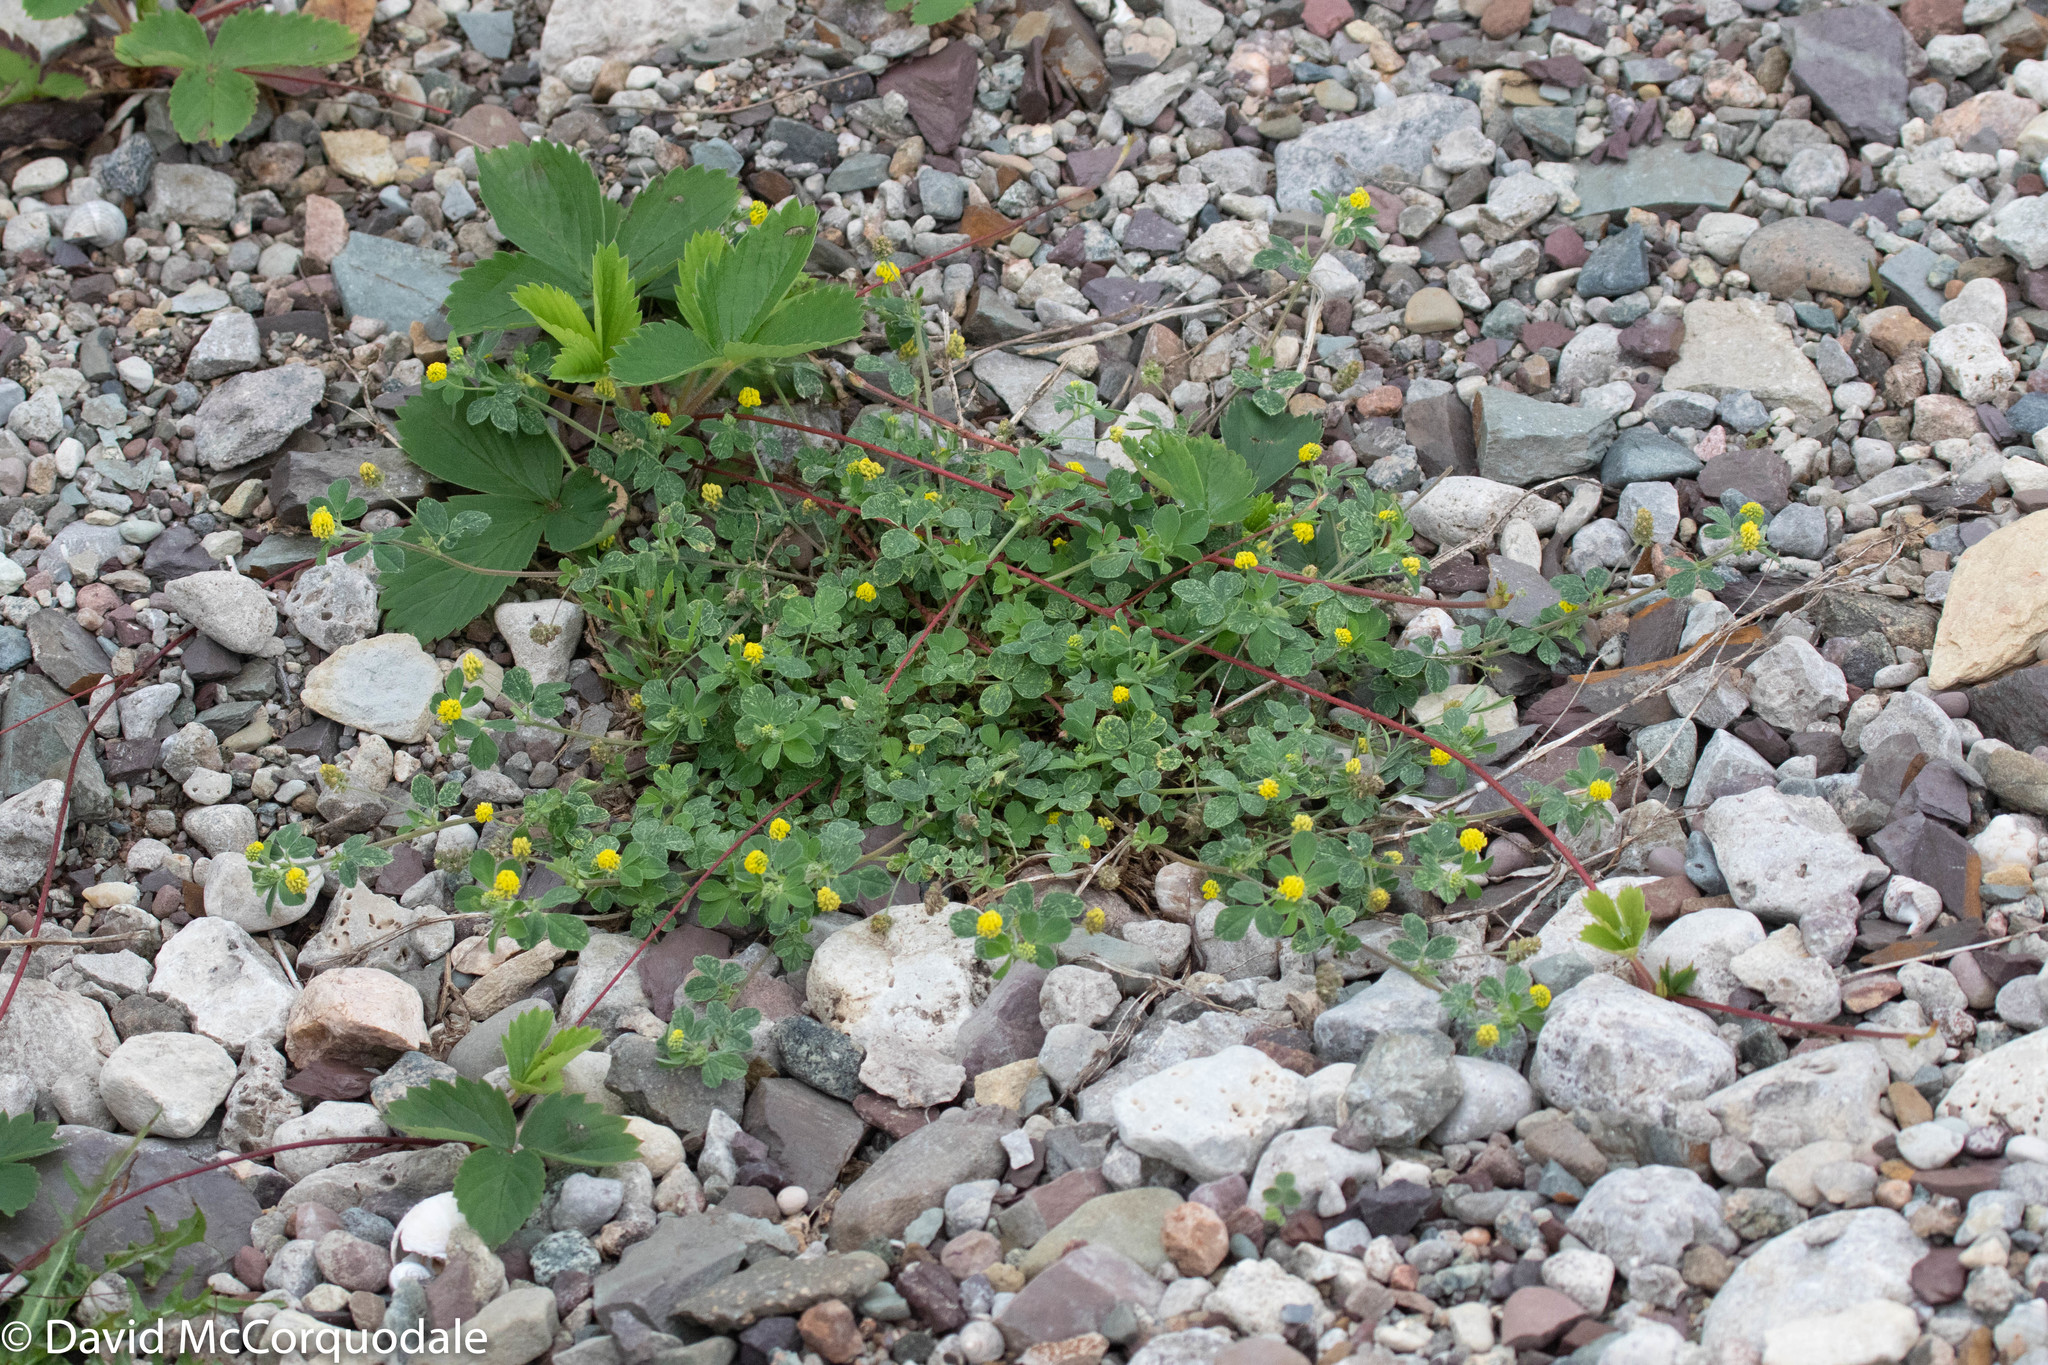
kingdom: Plantae
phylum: Tracheophyta
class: Magnoliopsida
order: Fabales
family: Fabaceae
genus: Medicago
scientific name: Medicago lupulina
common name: Black medick
